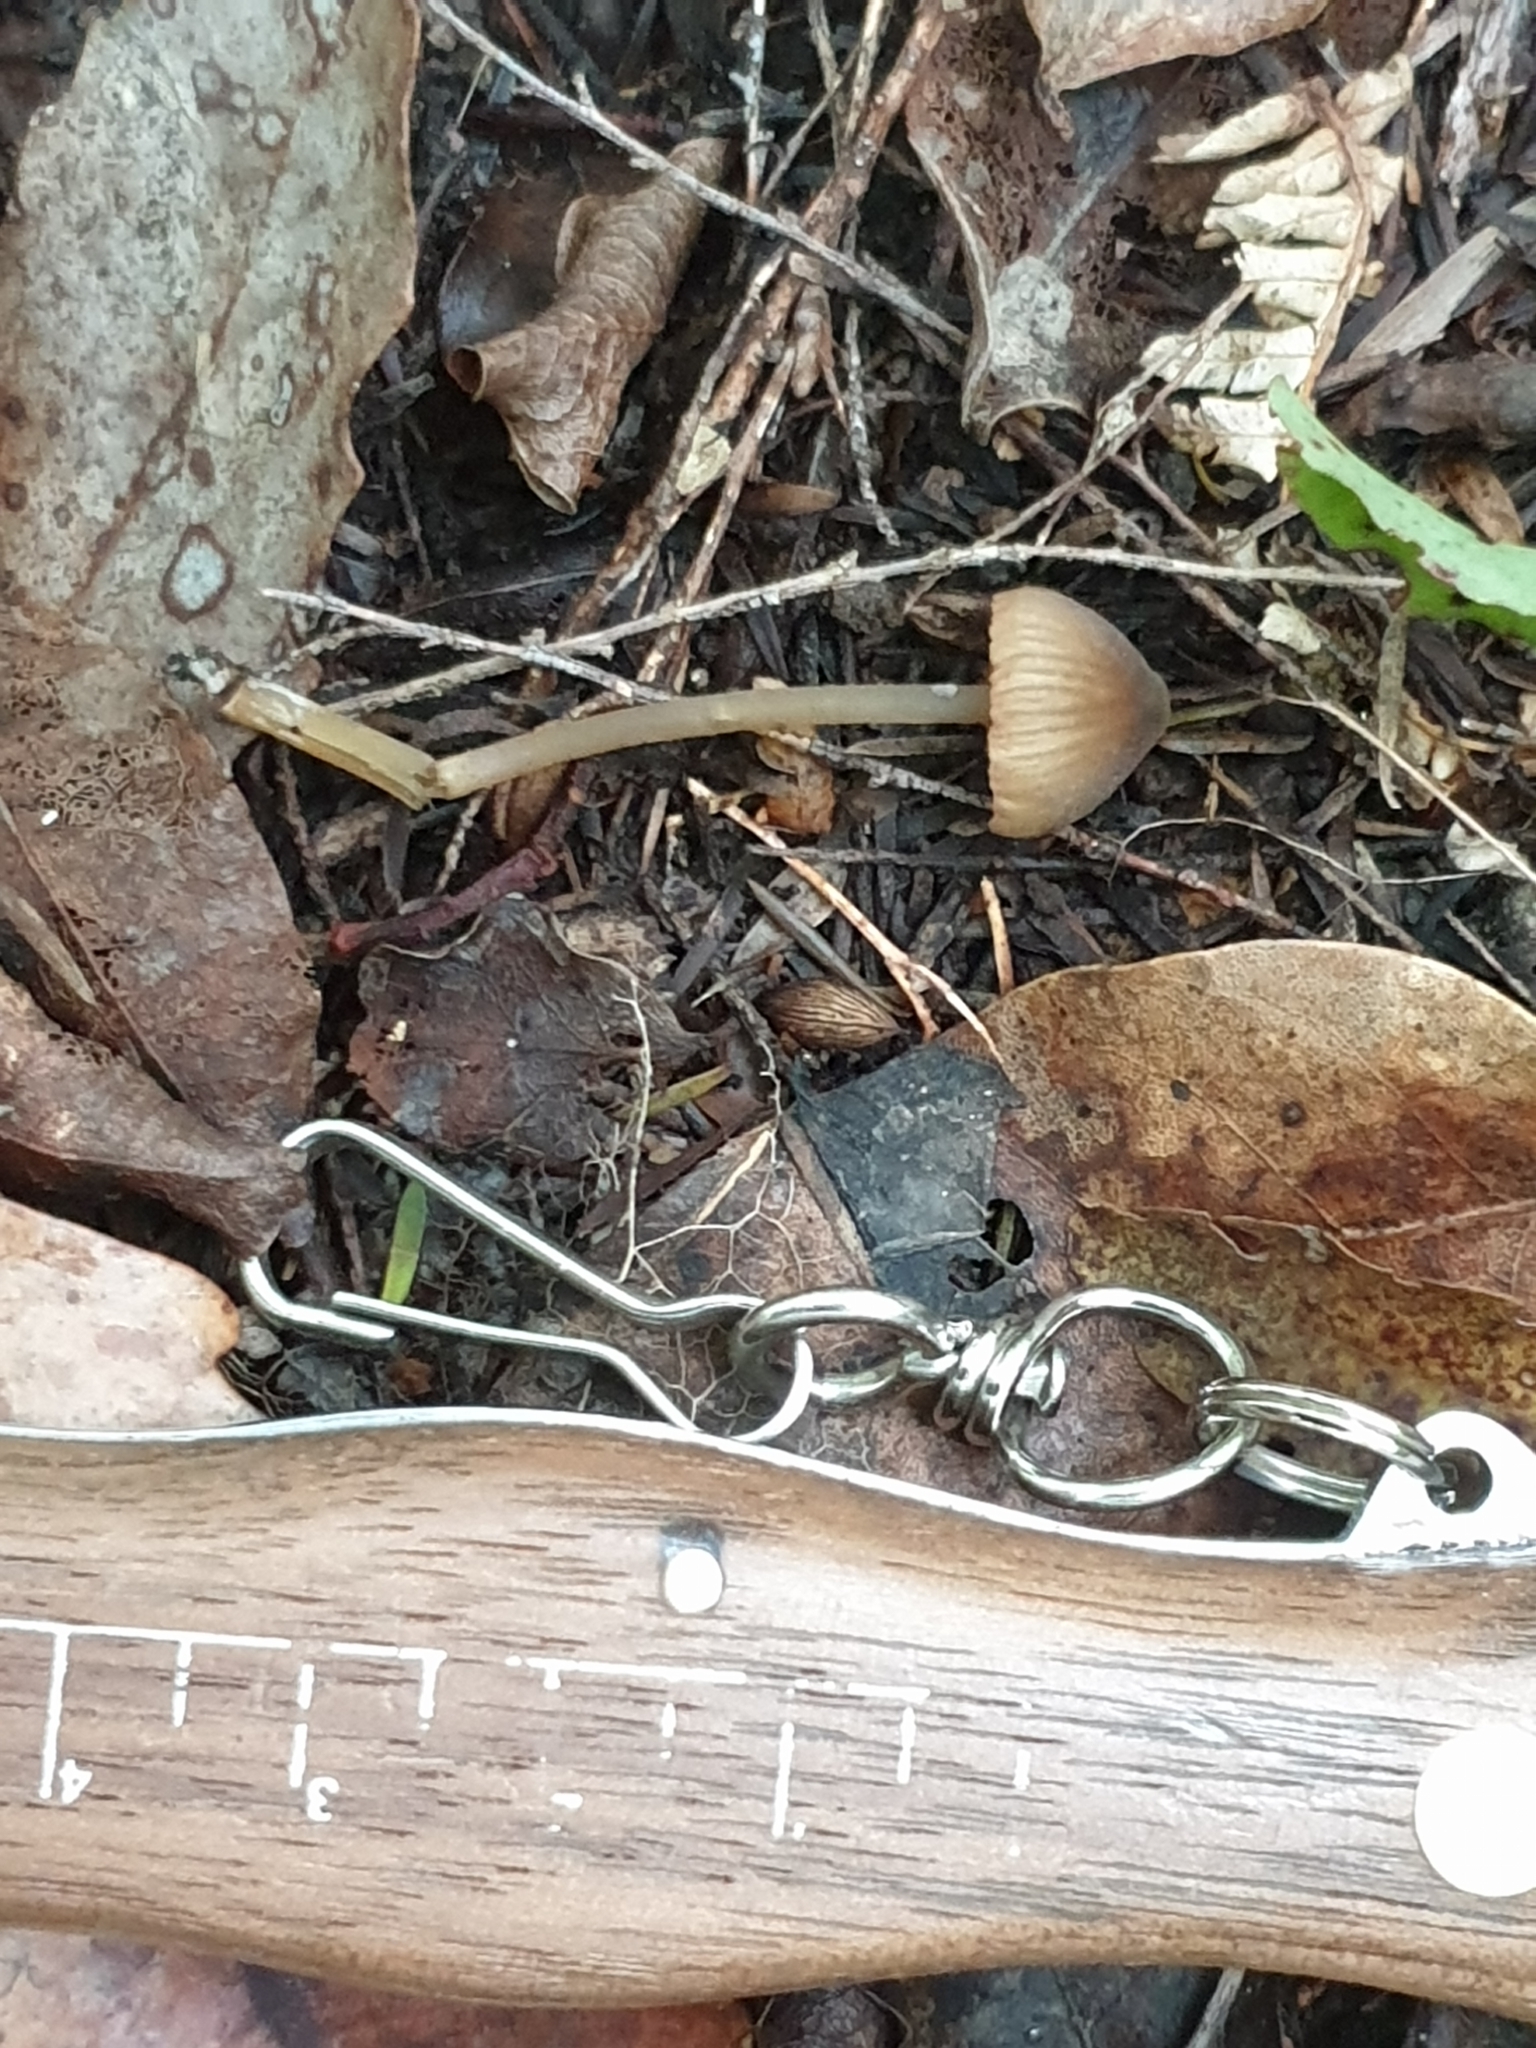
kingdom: Fungi
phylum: Basidiomycota
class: Agaricomycetes
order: Agaricales
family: Entolomataceae
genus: Entoloma
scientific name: Entoloma aromaticum
